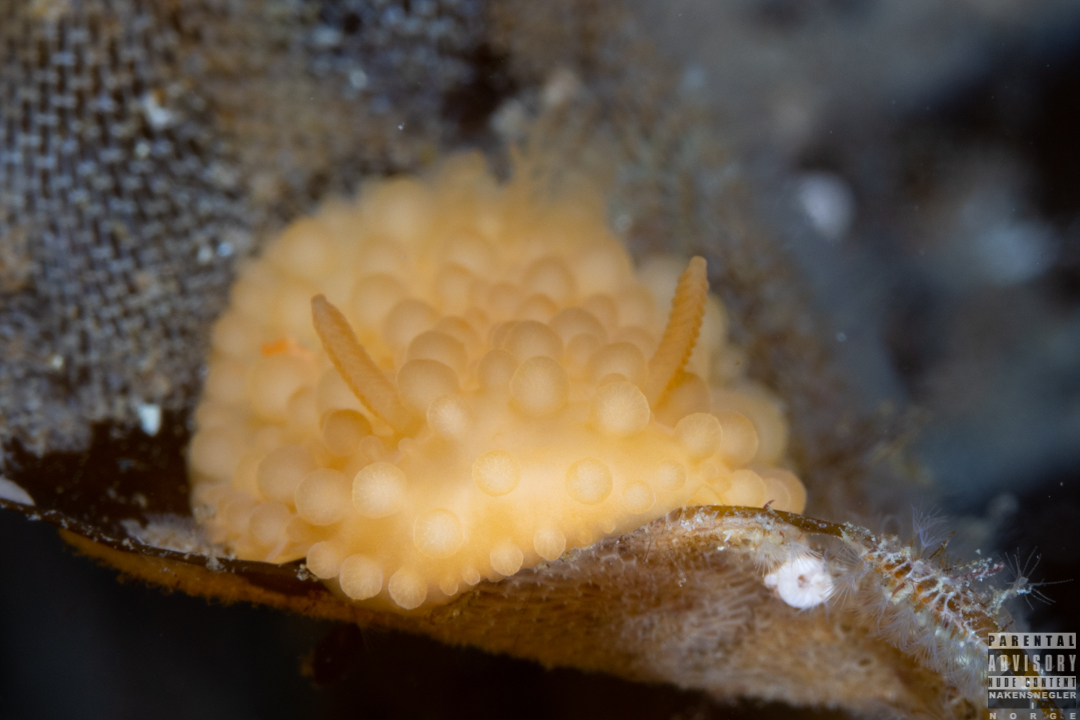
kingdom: Animalia
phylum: Mollusca
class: Gastropoda
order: Nudibranchia
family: Onchidorididae
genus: Adalaria
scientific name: Adalaria loveni
